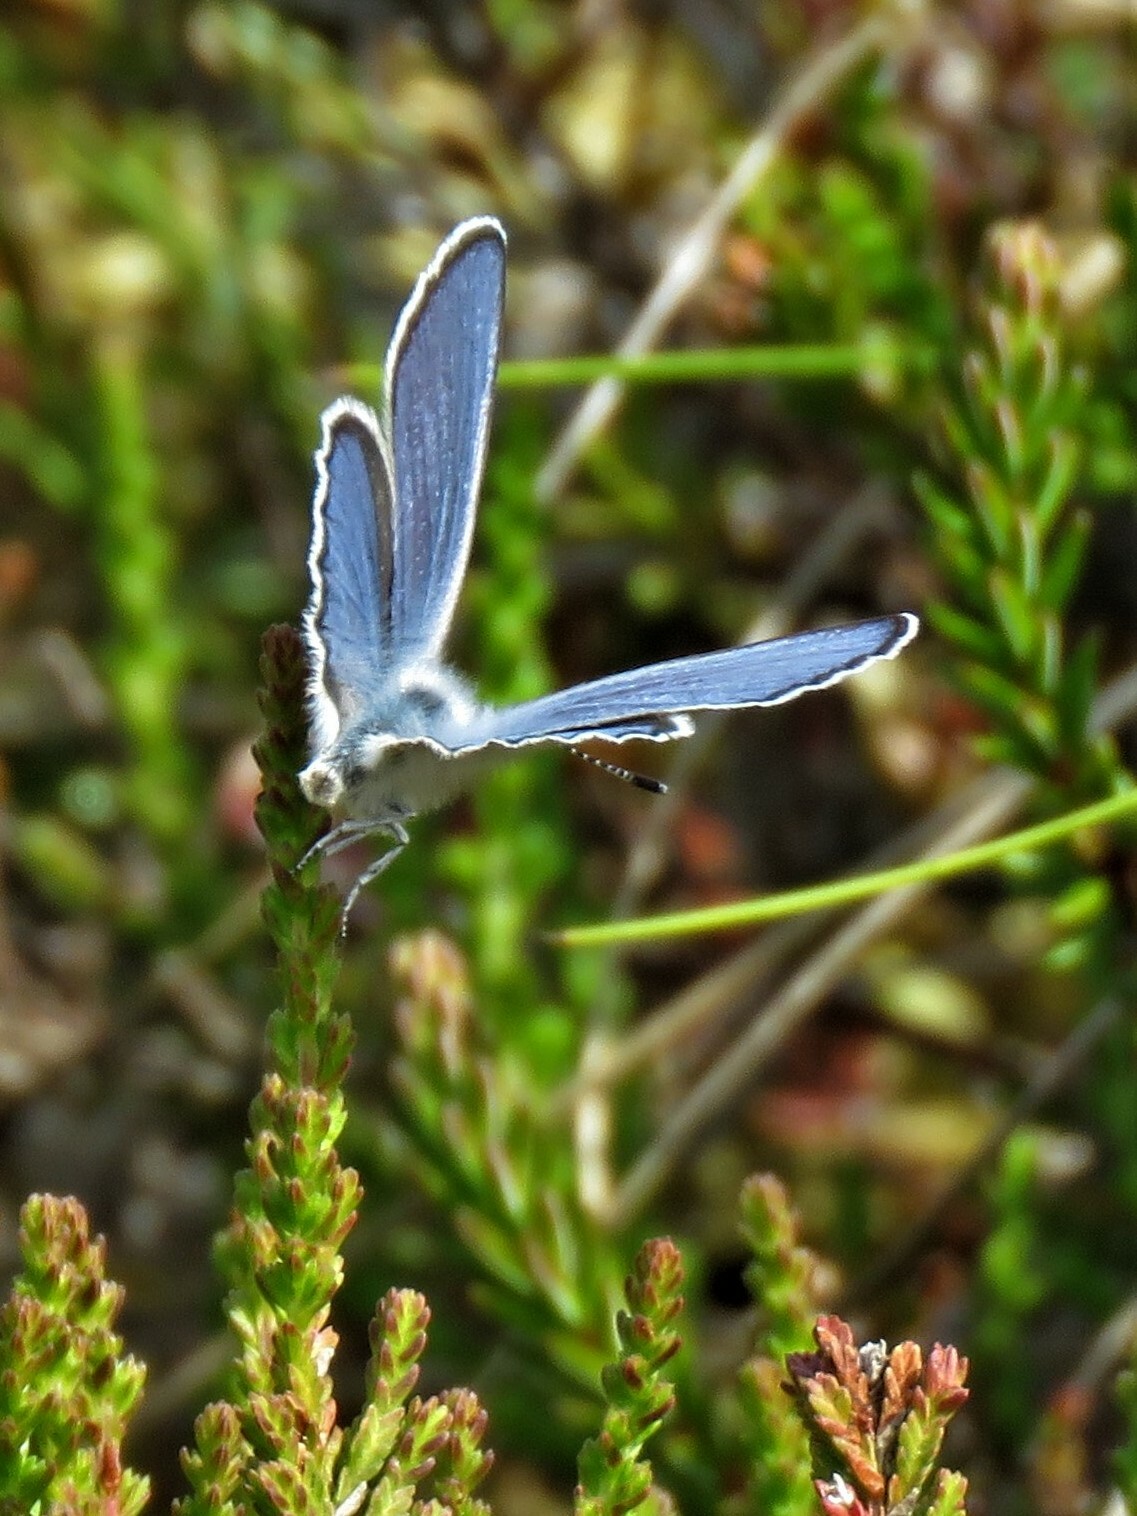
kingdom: Animalia
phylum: Arthropoda
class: Insecta
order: Lepidoptera
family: Lycaenidae
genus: Vacciniina
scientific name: Vacciniina optilete
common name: Cranberry blue
